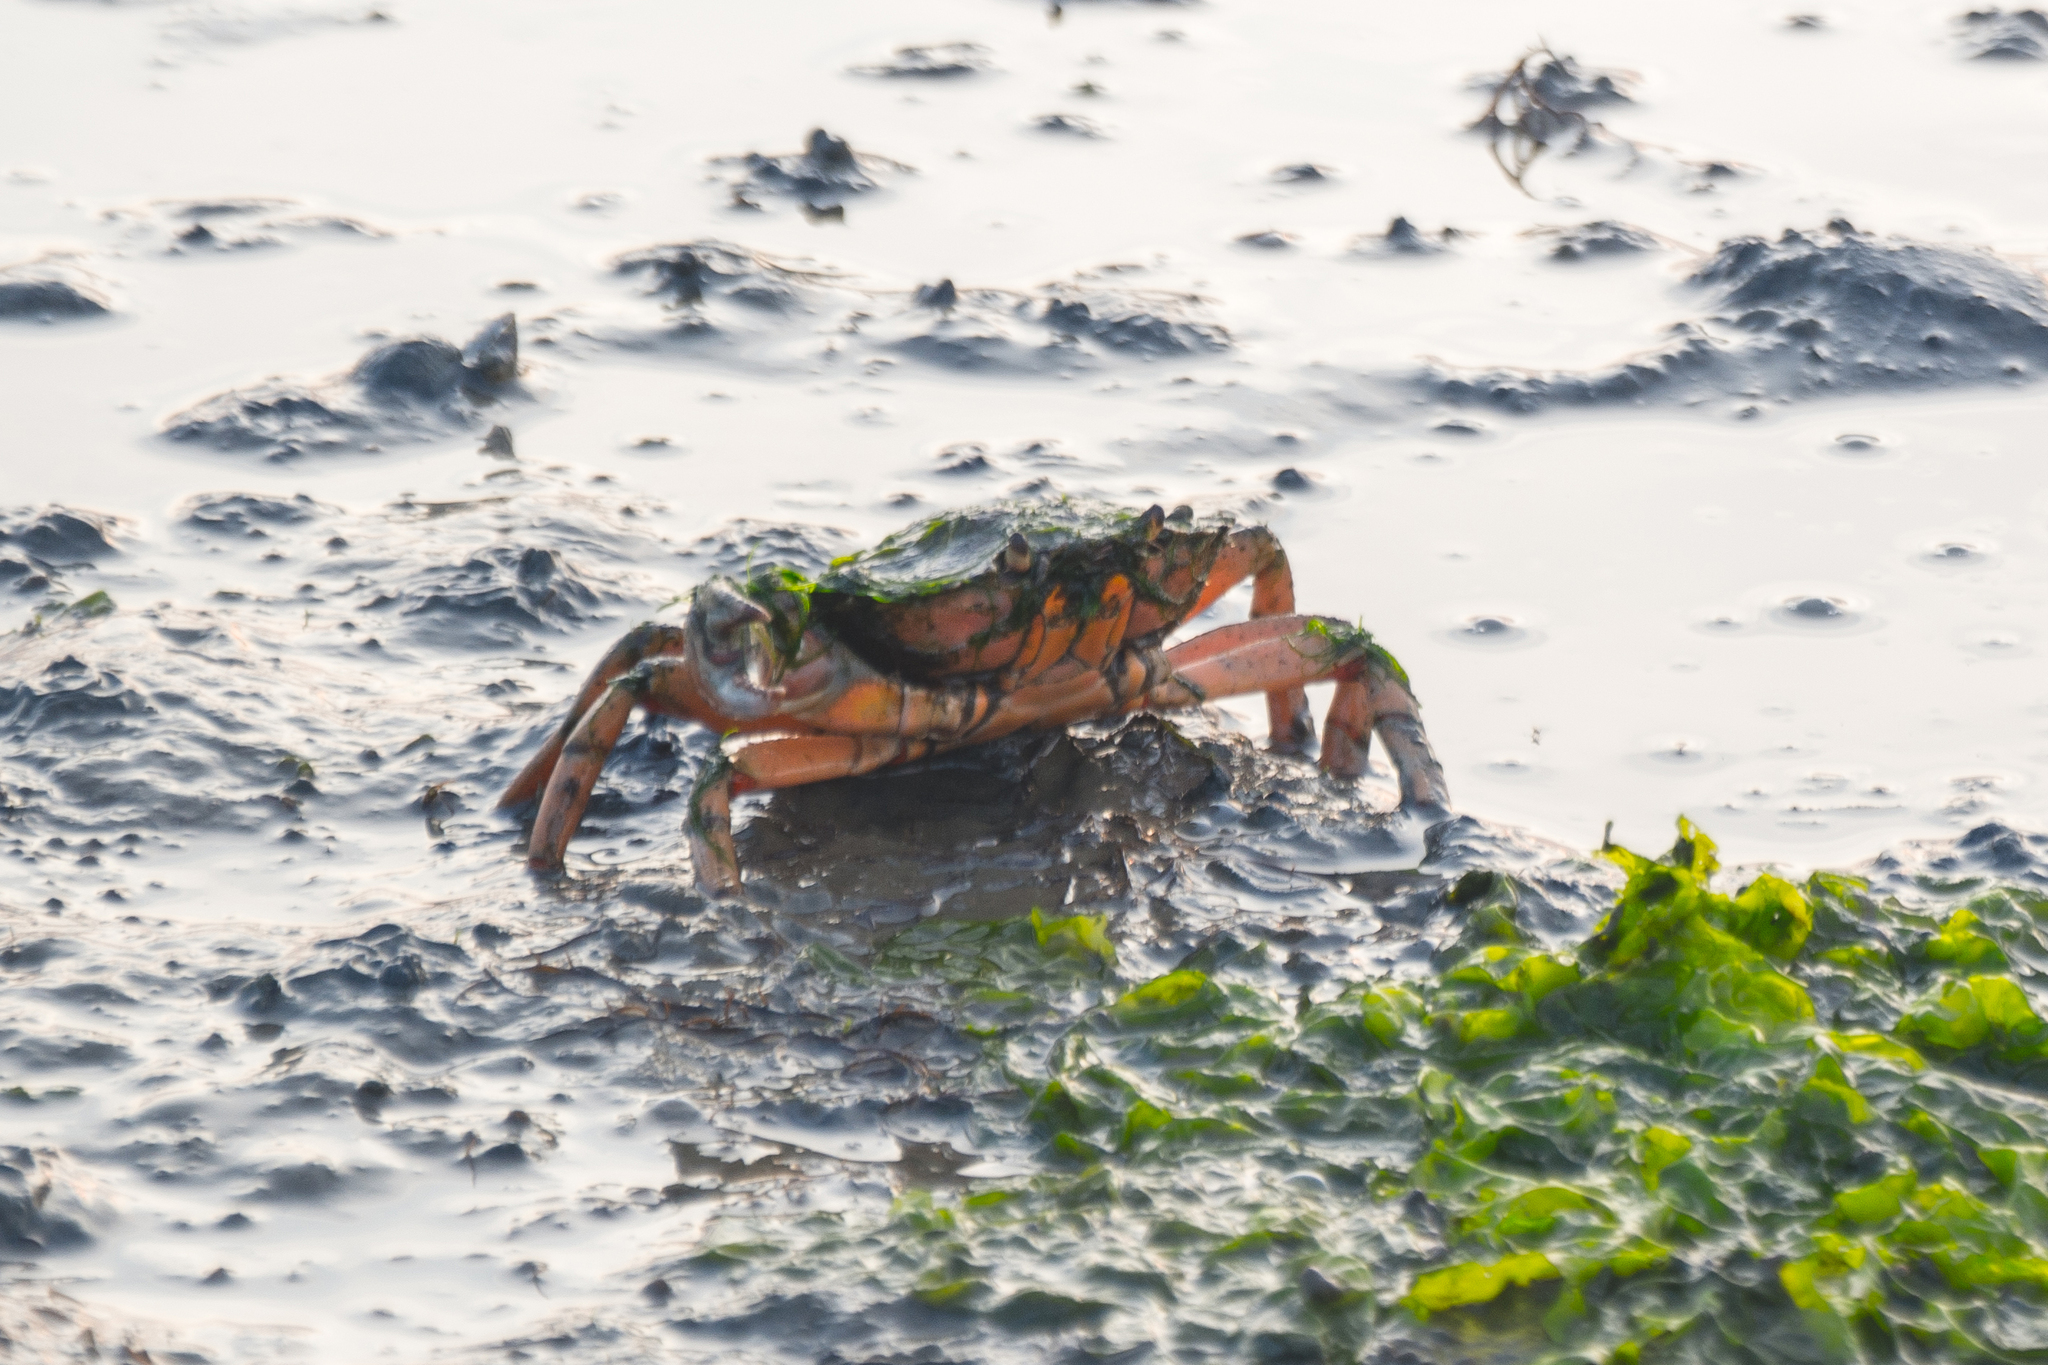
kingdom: Animalia
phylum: Arthropoda
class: Malacostraca
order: Decapoda
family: Carcinidae
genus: Carcinus
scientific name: Carcinus maenas
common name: European green crab
